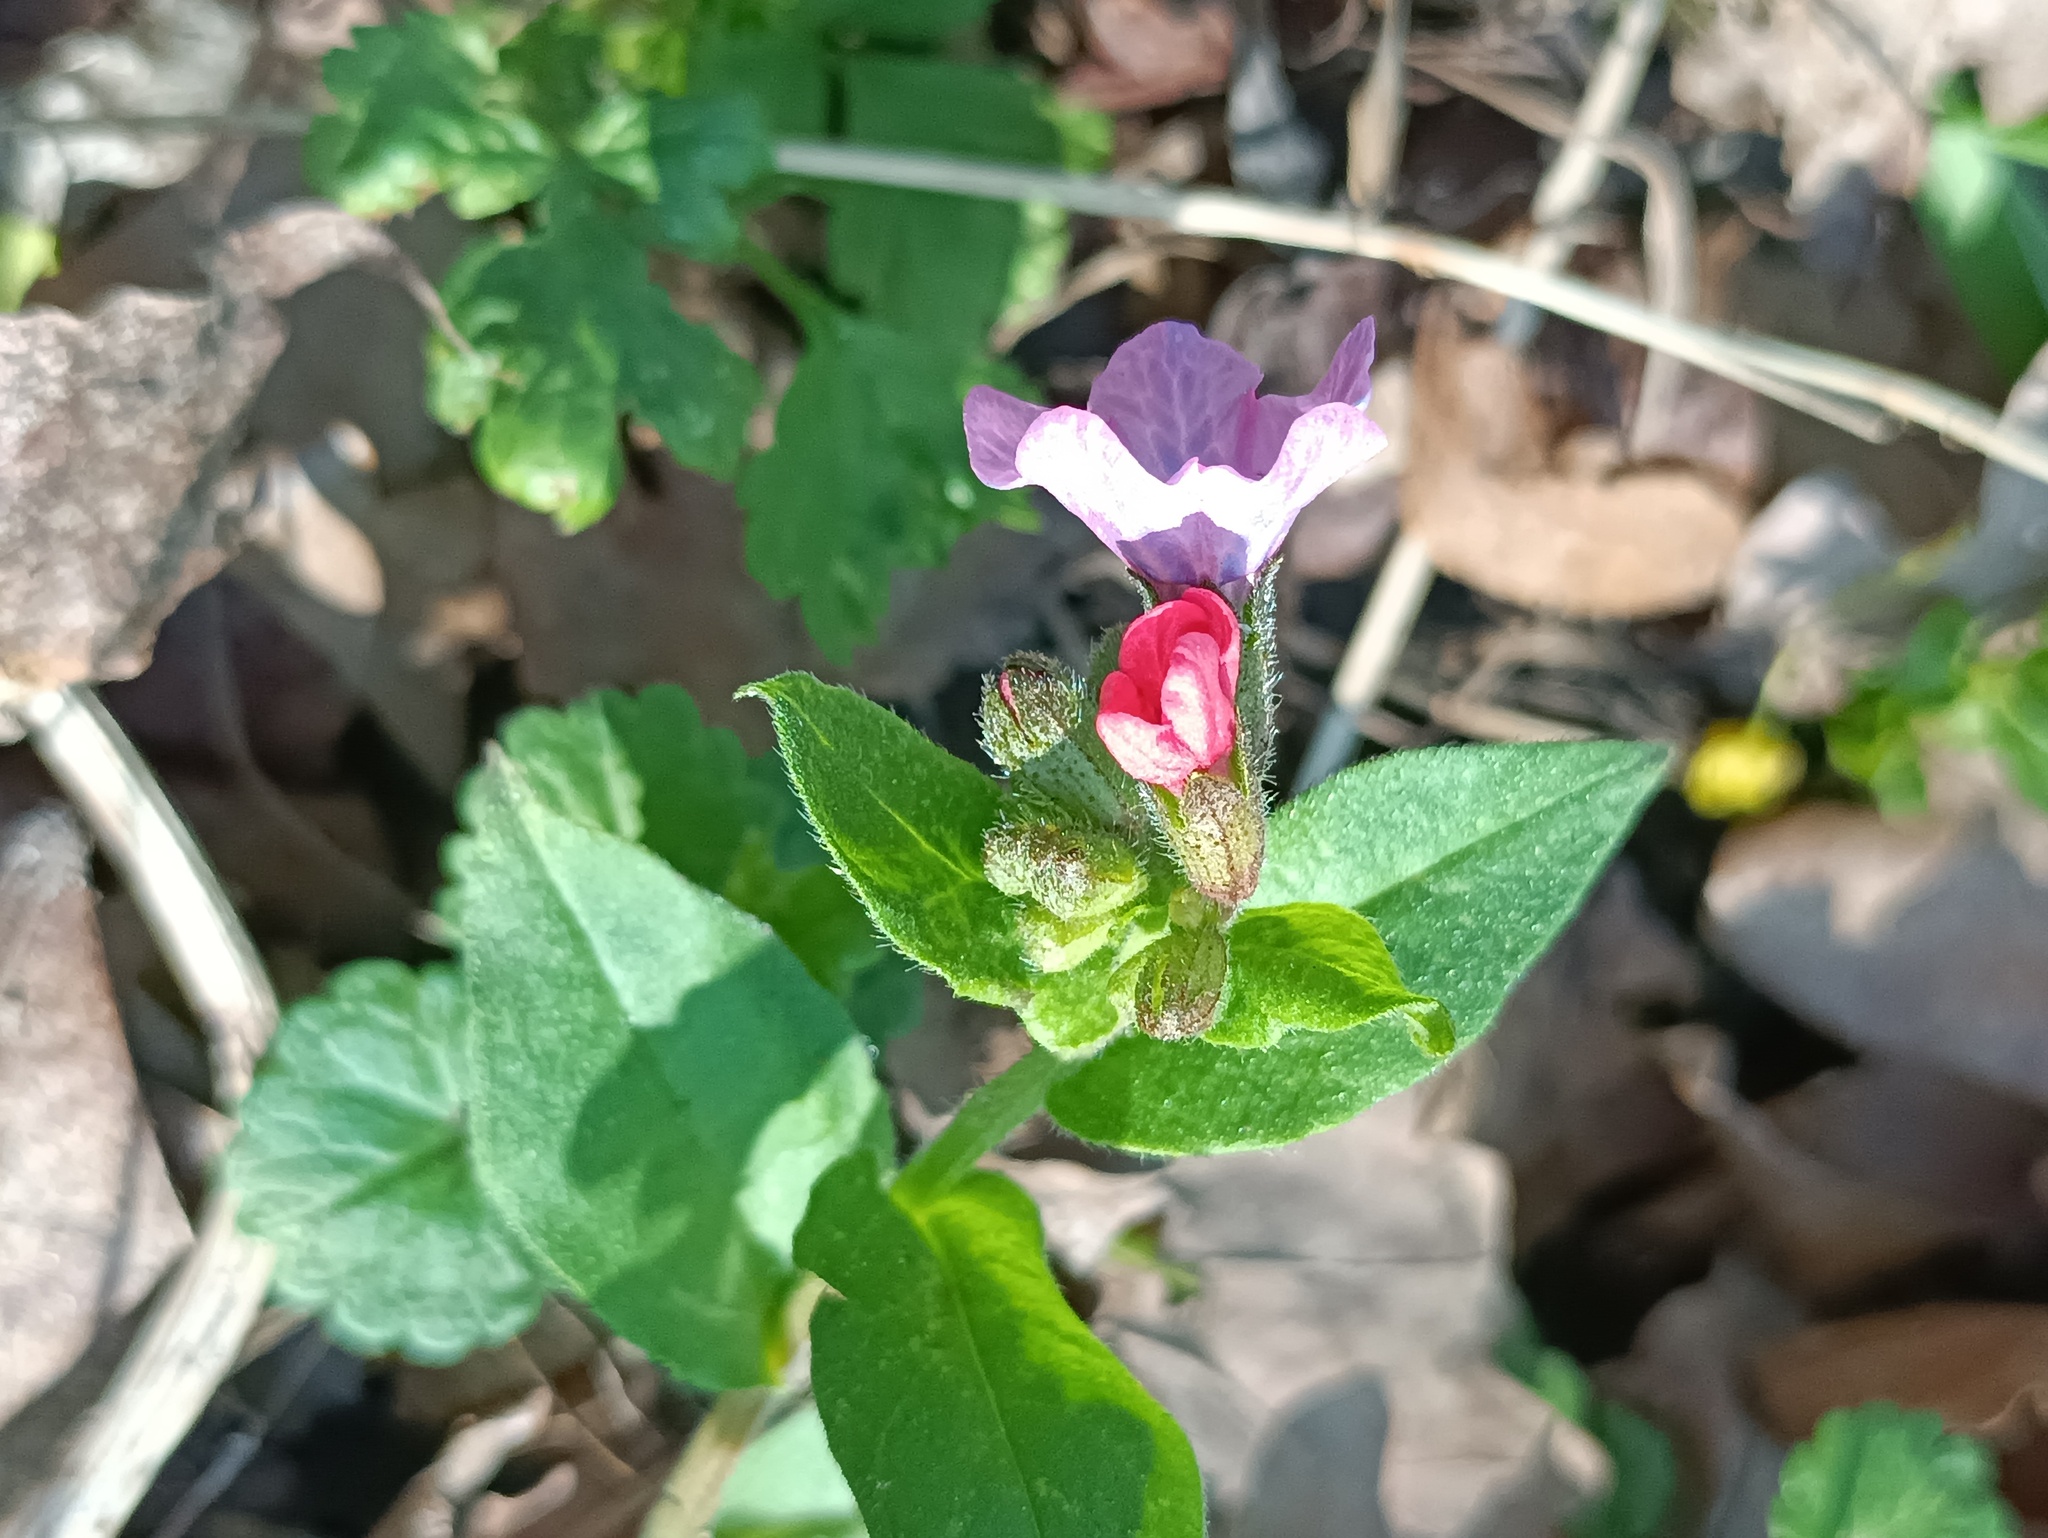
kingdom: Plantae
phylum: Tracheophyta
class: Magnoliopsida
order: Boraginales
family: Boraginaceae
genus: Pulmonaria
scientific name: Pulmonaria obscura
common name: Suffolk lungwort
